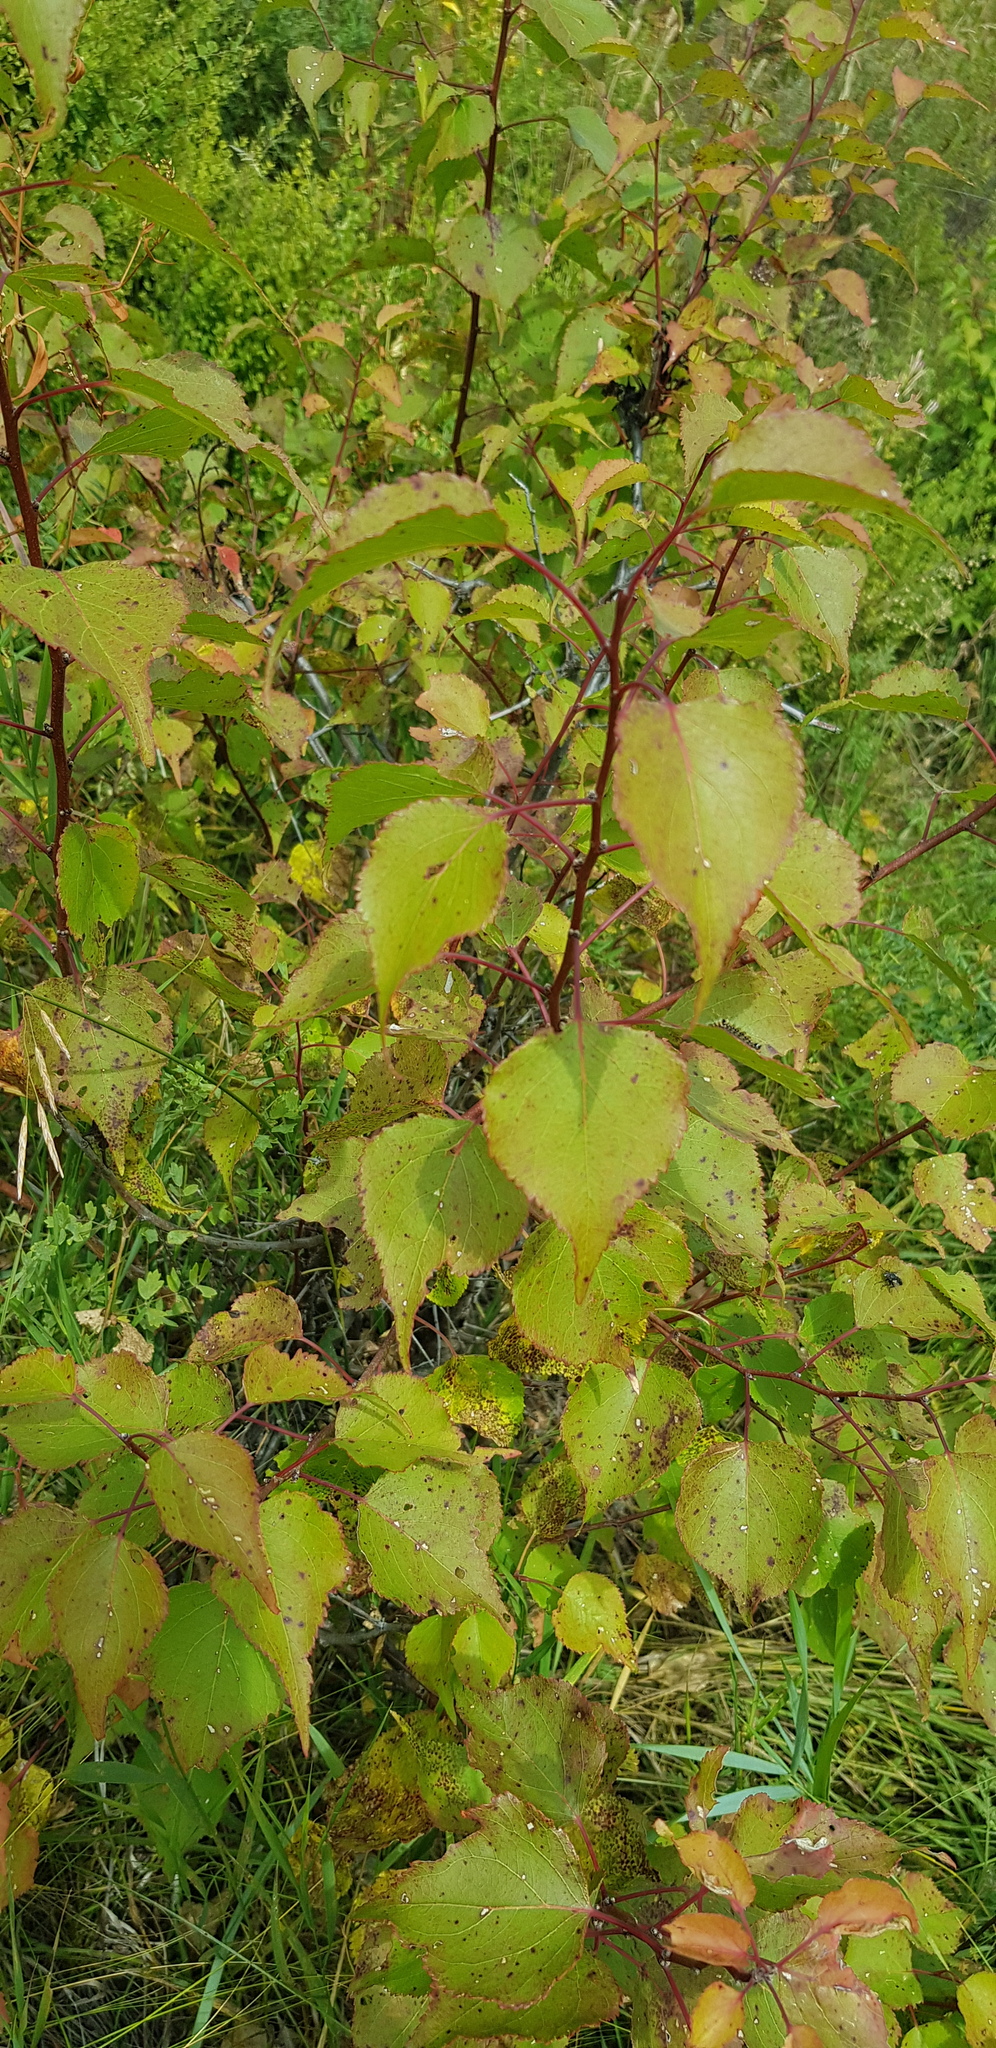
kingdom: Plantae
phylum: Tracheophyta
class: Magnoliopsida
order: Rosales
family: Rosaceae
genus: Prunus
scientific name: Prunus armeniaca
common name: Apricot
